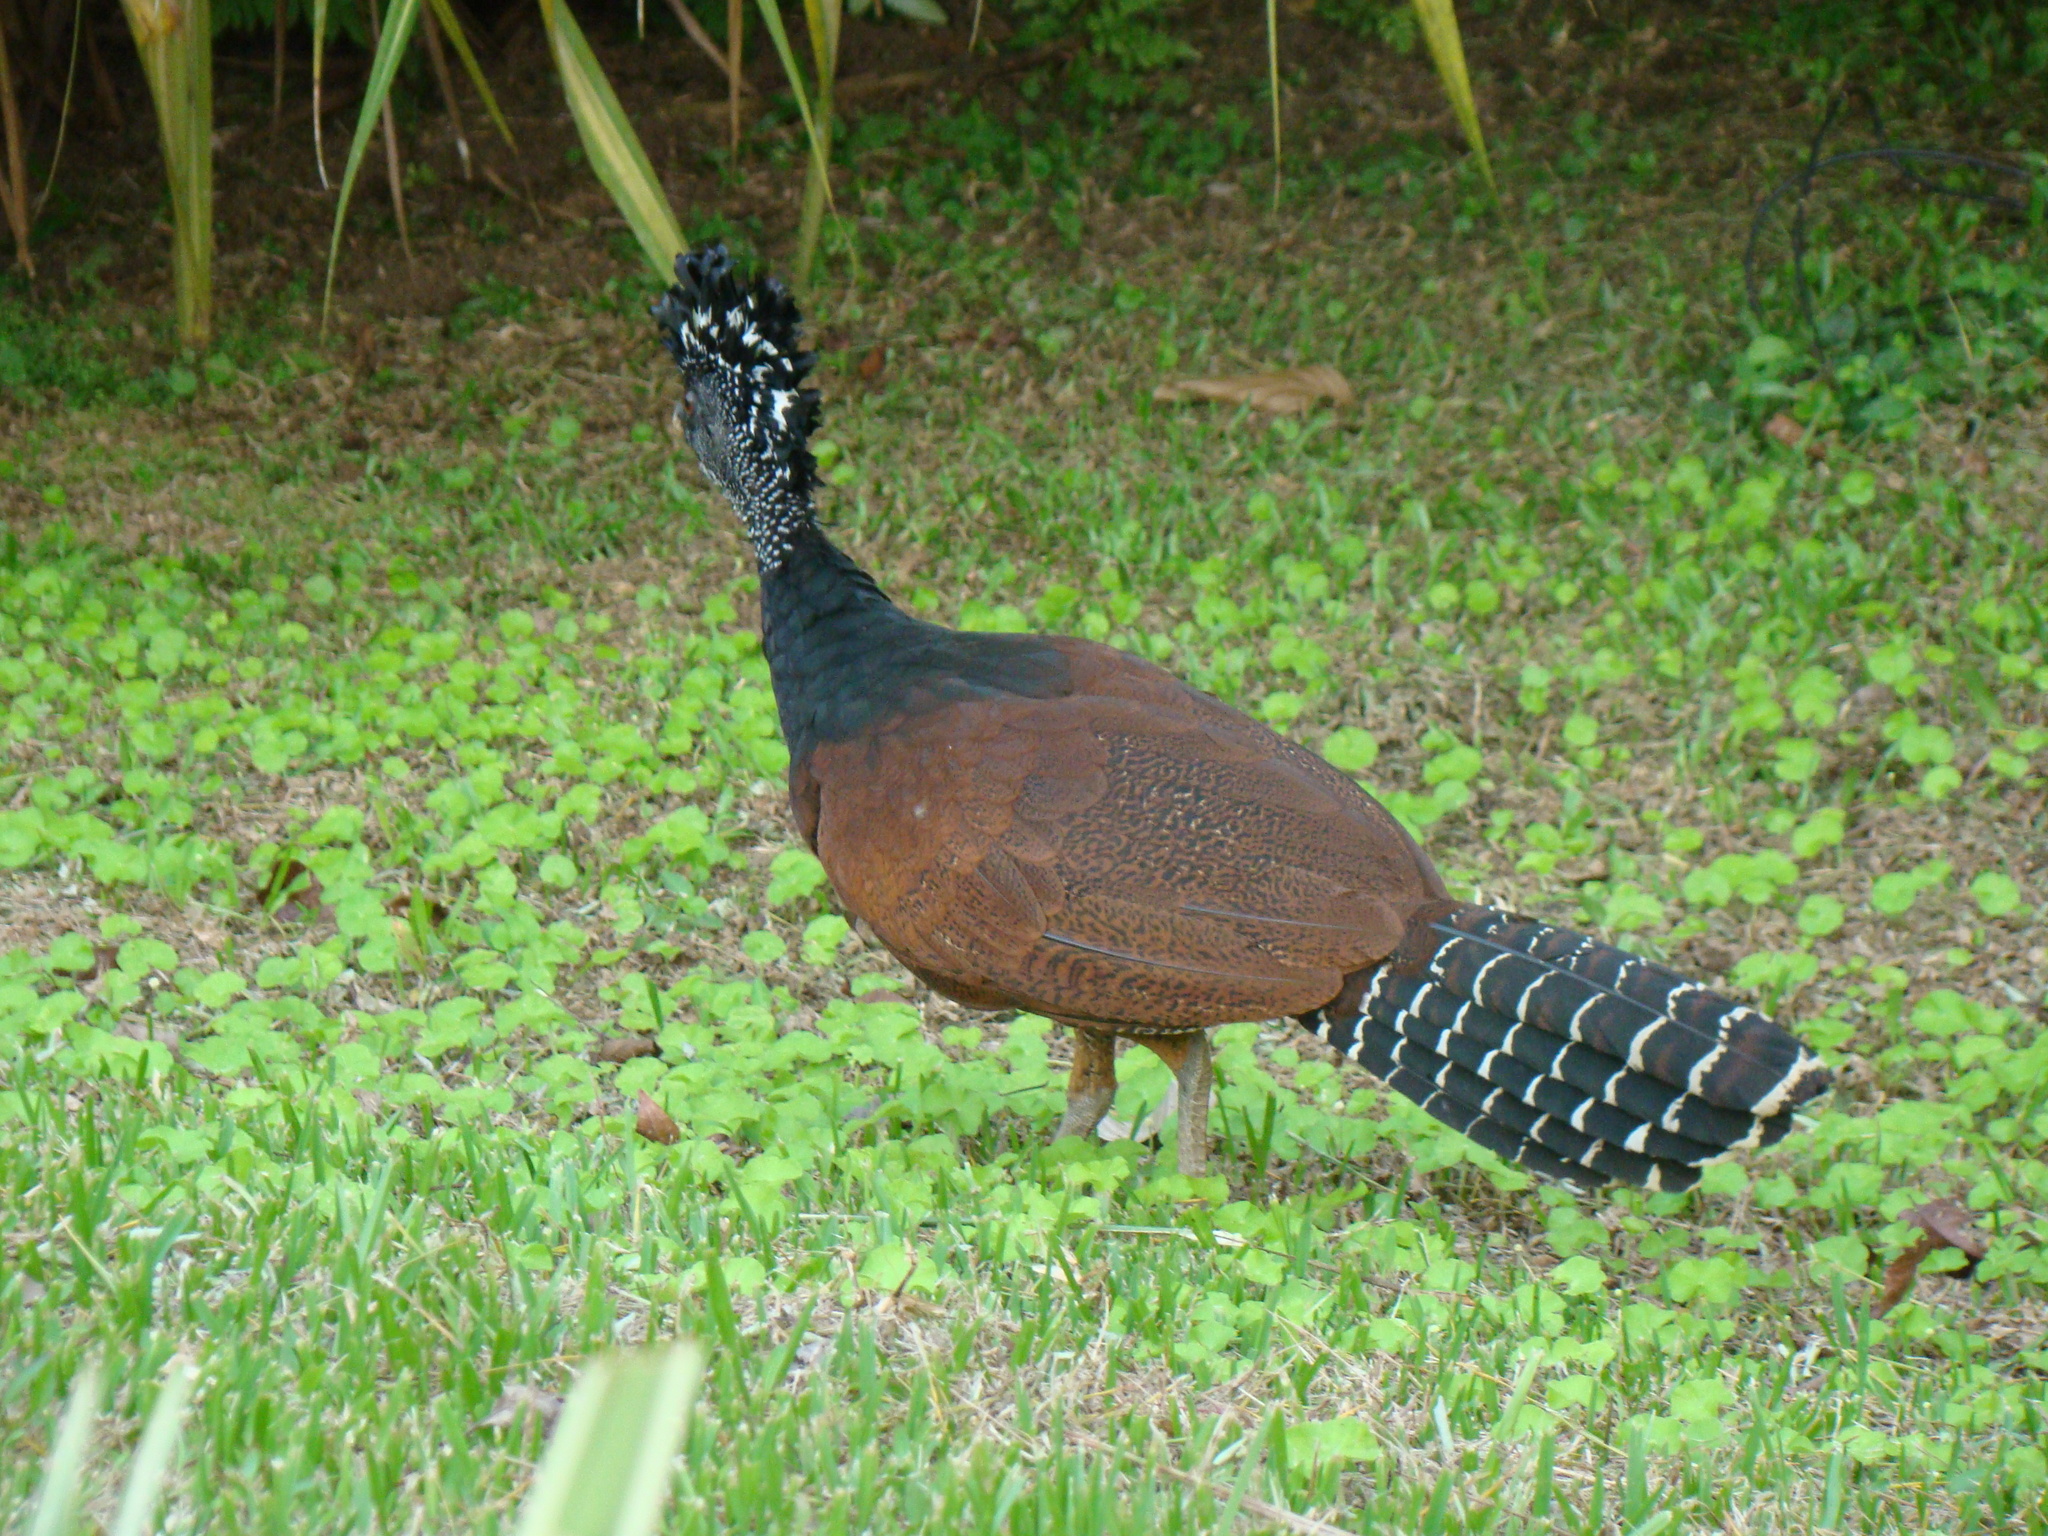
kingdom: Animalia
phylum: Chordata
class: Aves
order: Galliformes
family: Cracidae
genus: Crax
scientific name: Crax rubra
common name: Great curassow
